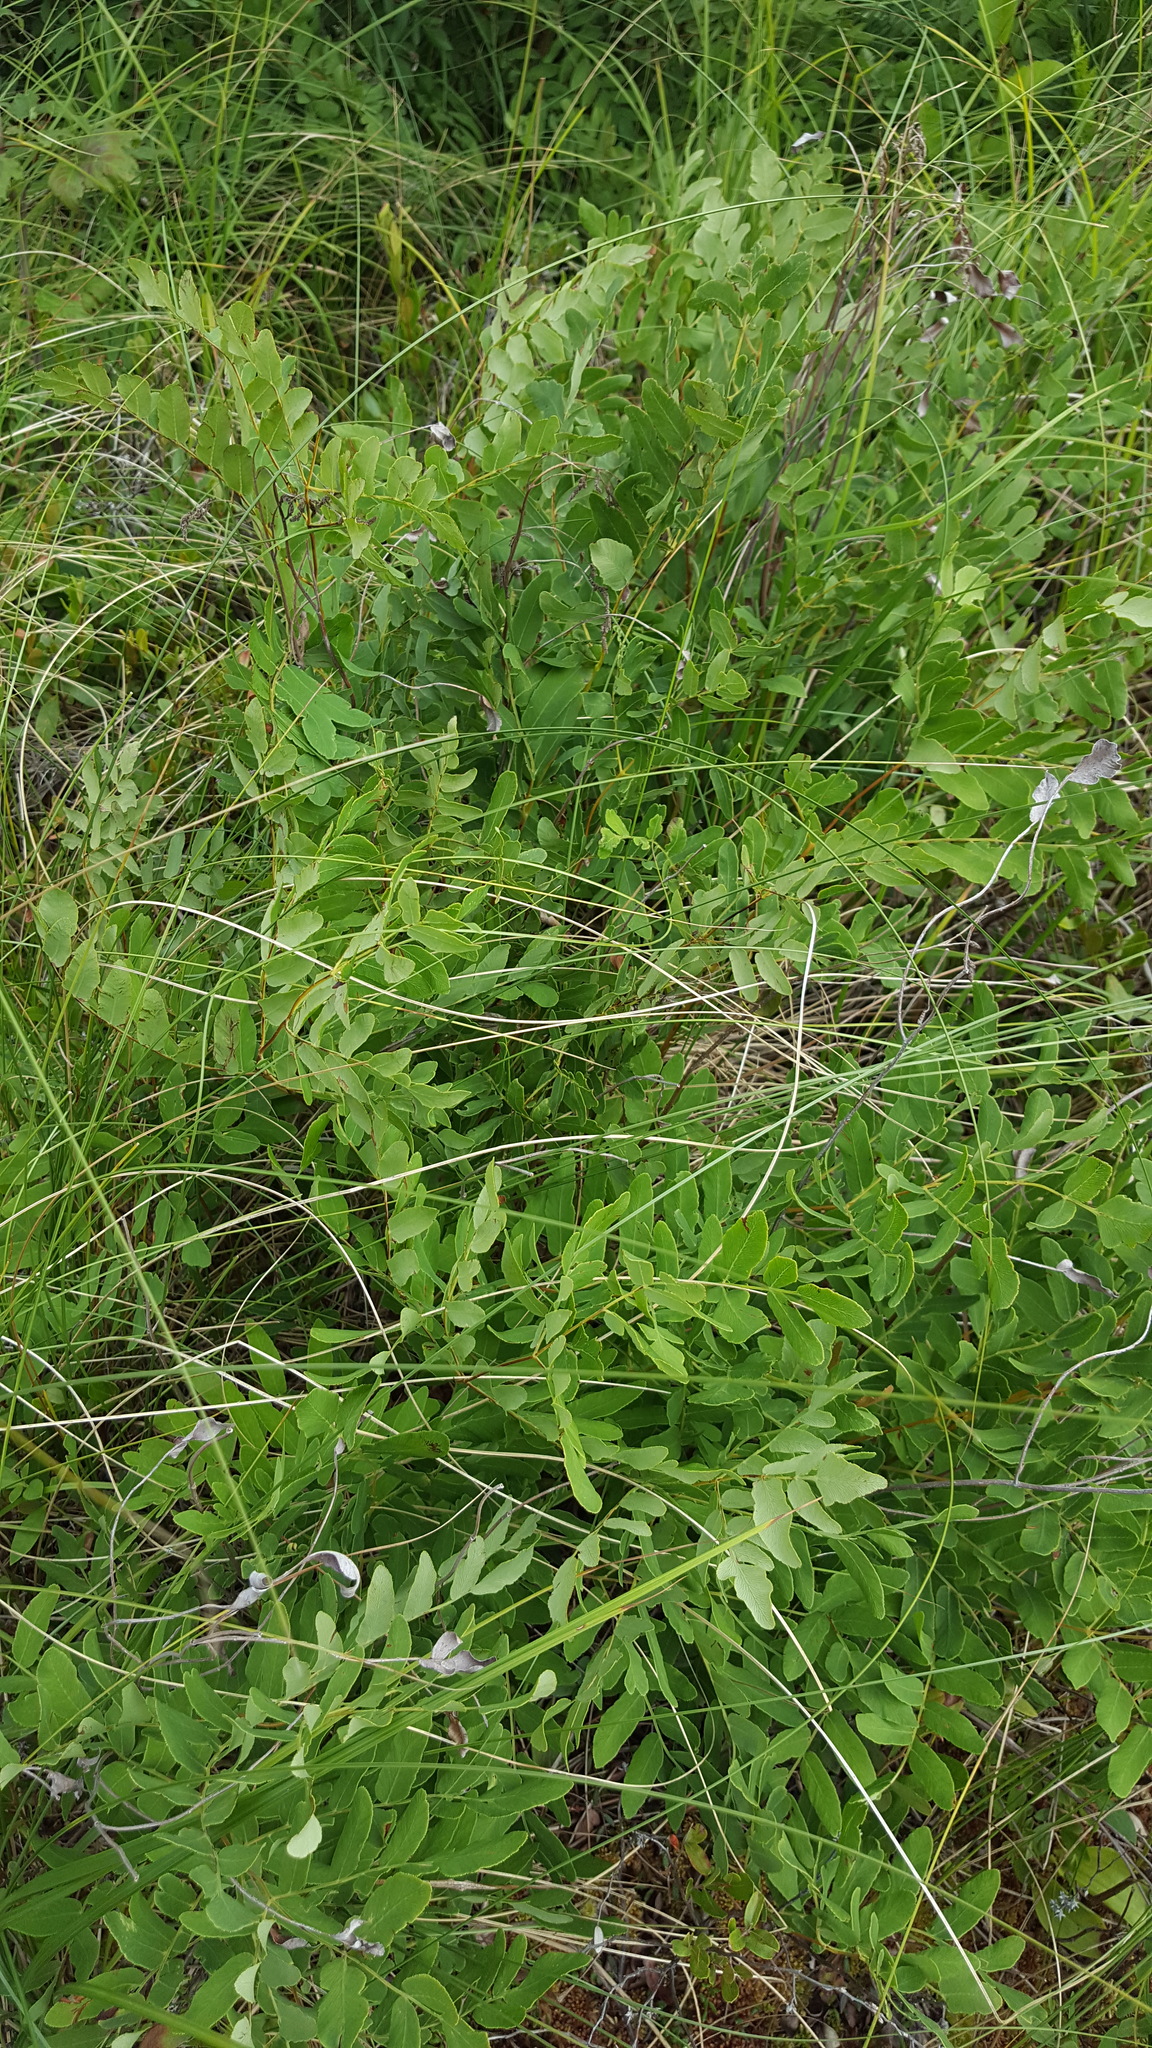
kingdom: Plantae
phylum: Tracheophyta
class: Polypodiopsida
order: Osmundales
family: Osmundaceae
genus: Osmunda
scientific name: Osmunda spectabilis
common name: American royal fern
